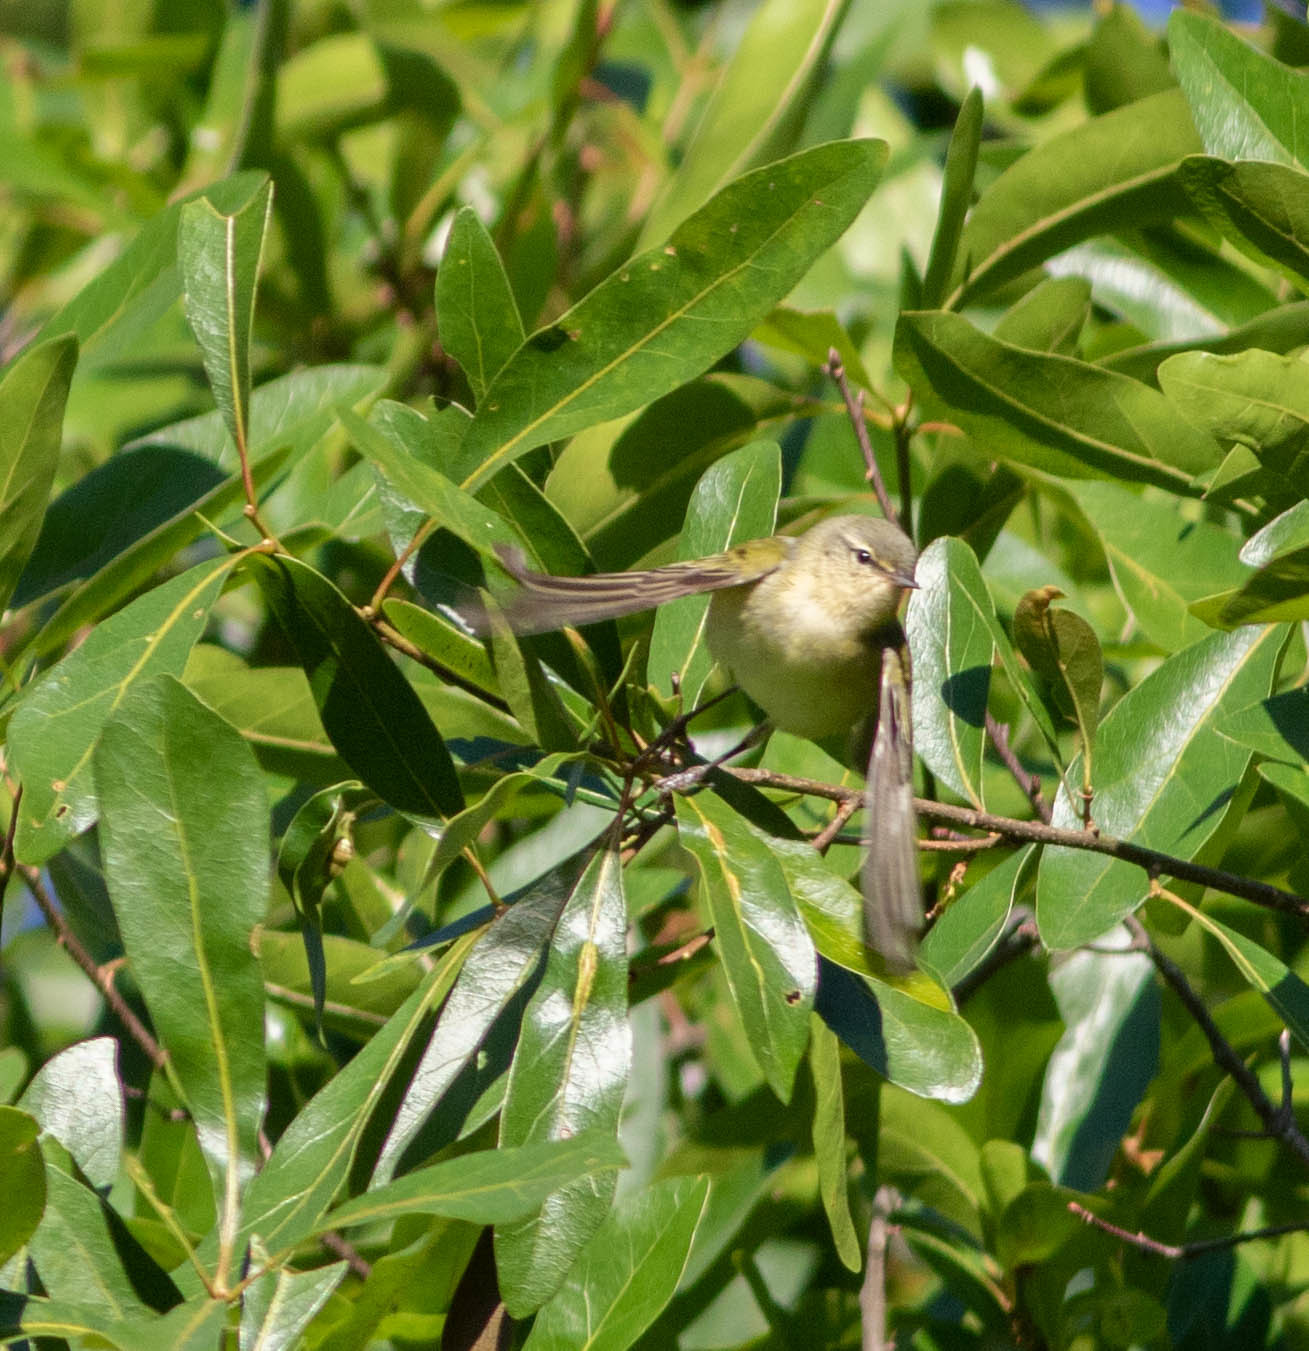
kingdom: Animalia
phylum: Chordata
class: Aves
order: Passeriformes
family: Parulidae
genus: Leiothlypis
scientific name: Leiothlypis peregrina
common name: Tennessee warbler
